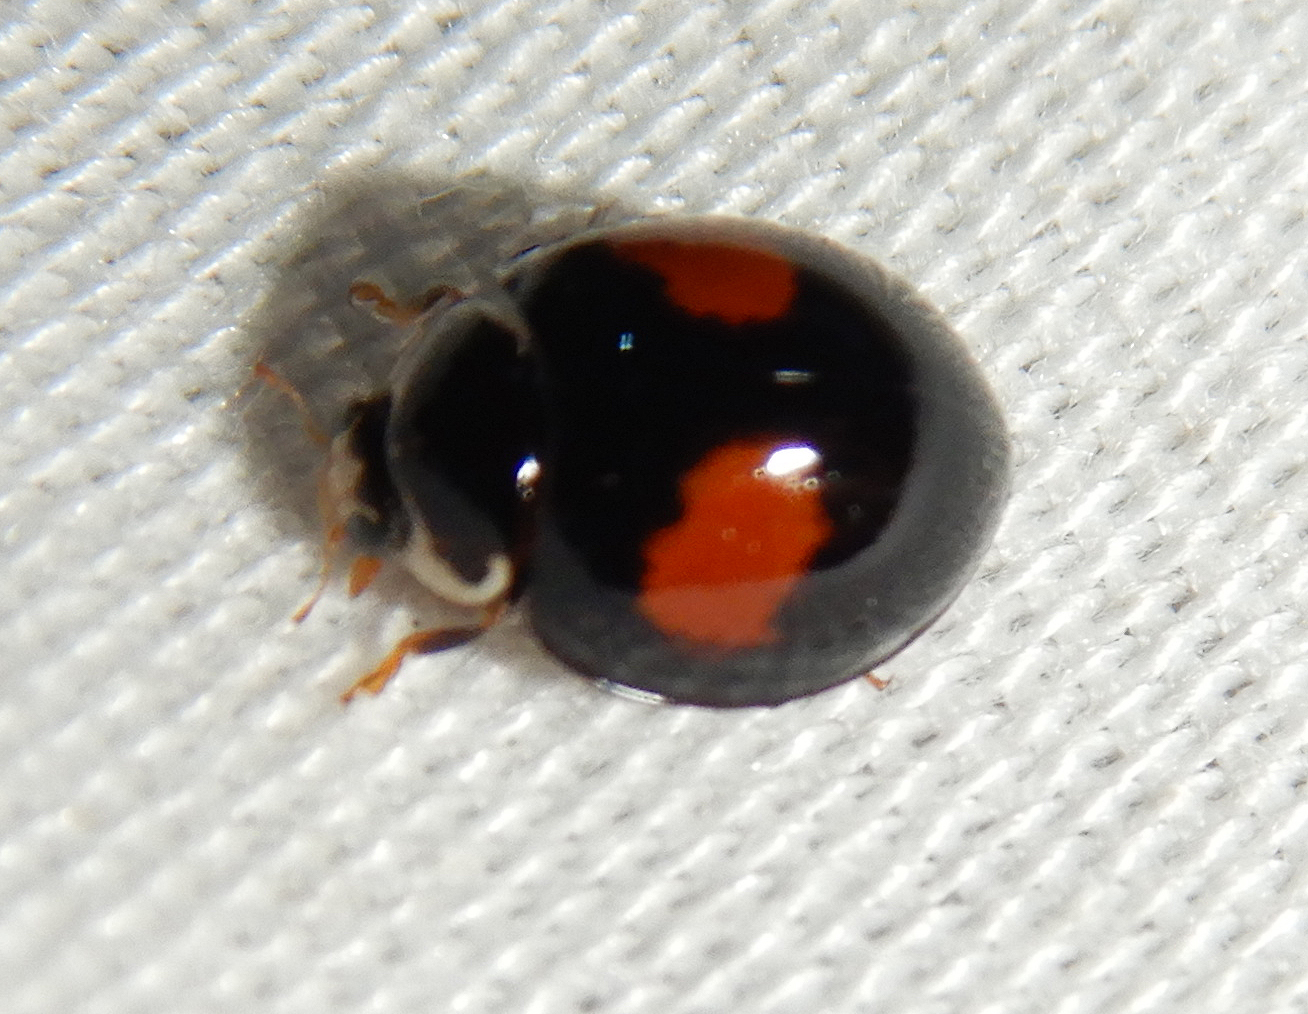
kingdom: Animalia
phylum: Arthropoda
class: Insecta
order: Coleoptera
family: Coccinellidae
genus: Olla
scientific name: Olla v-nigrum
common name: Ashy gray lady beetle
